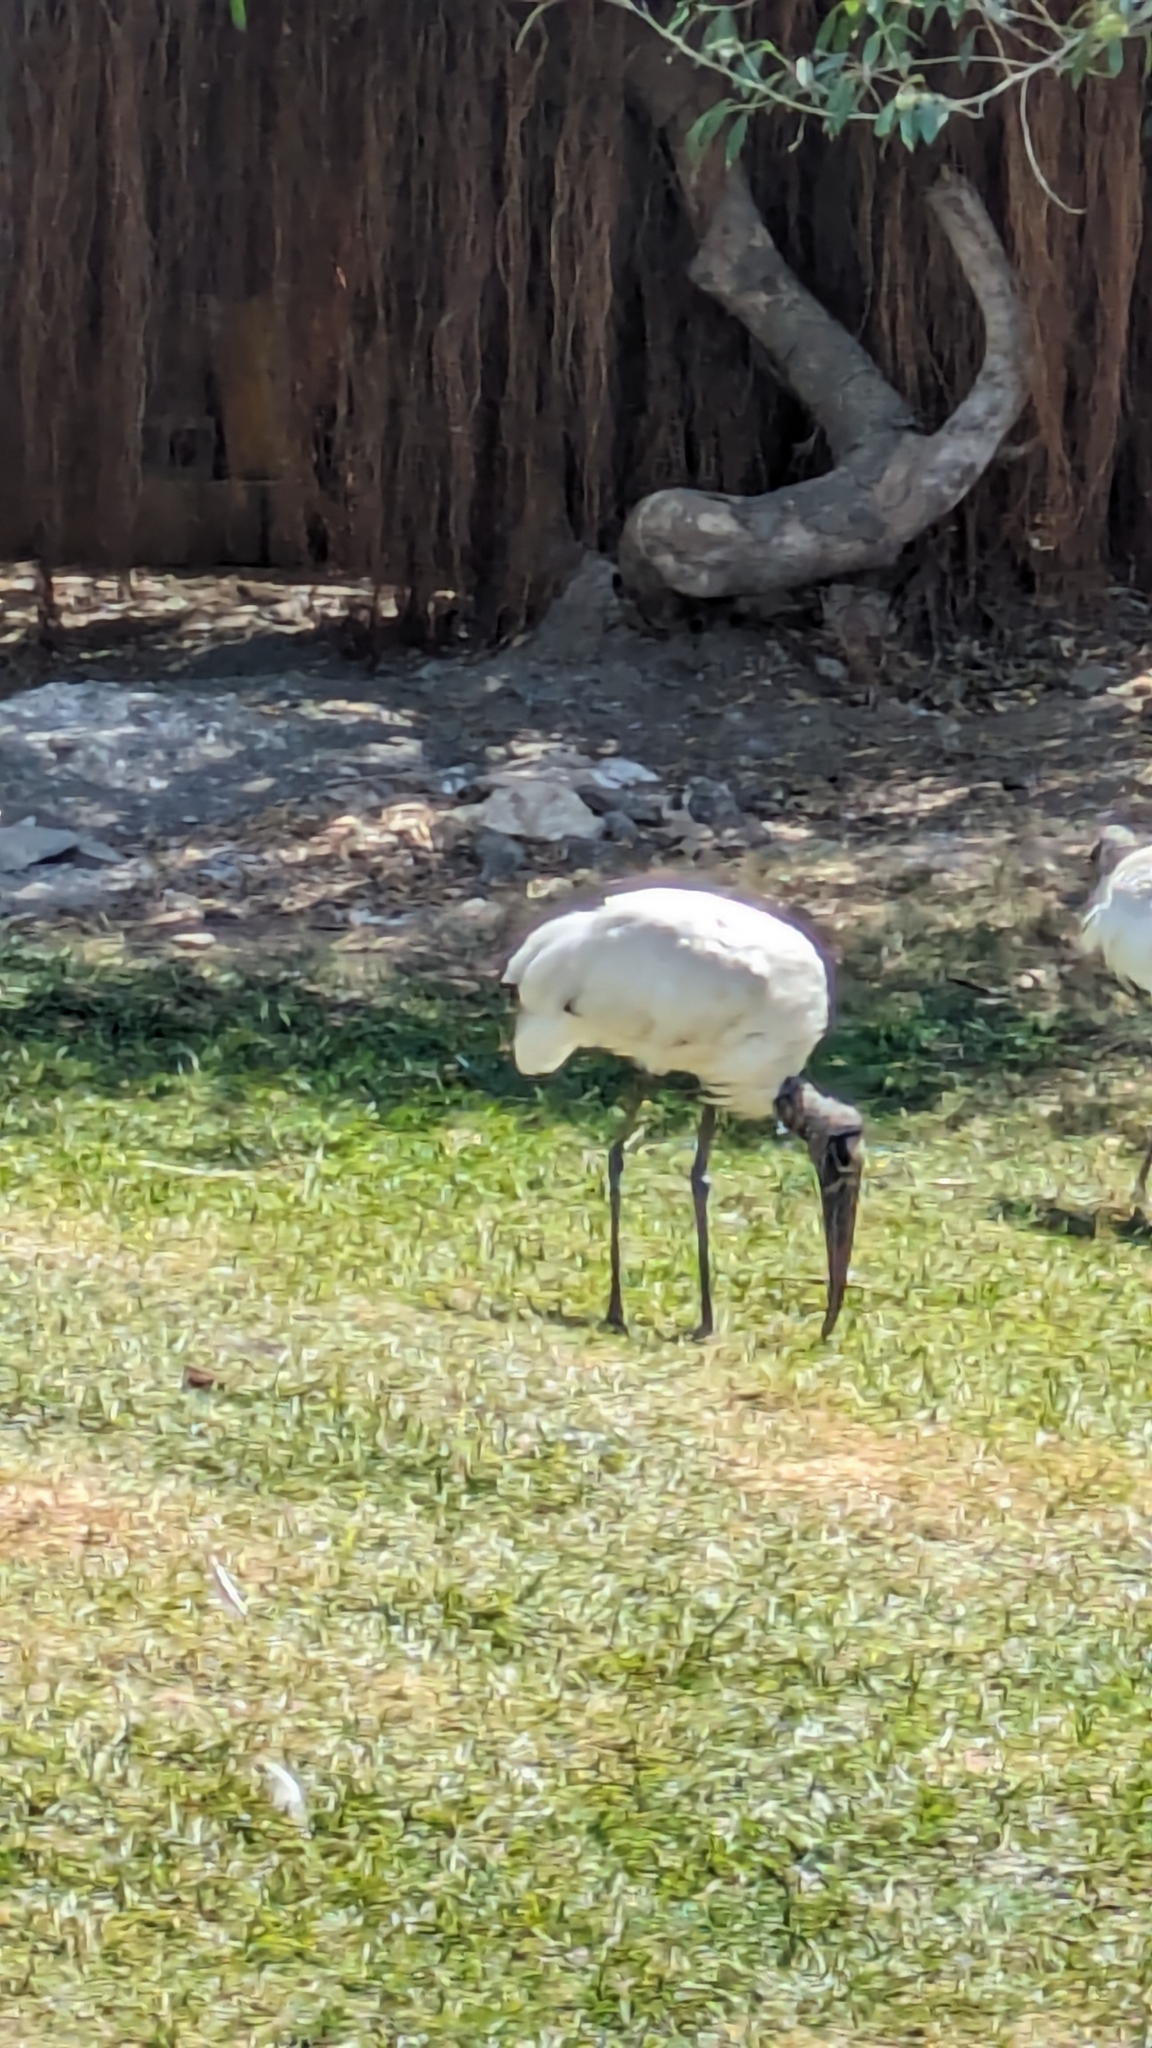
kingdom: Animalia
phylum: Chordata
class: Aves
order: Ciconiiformes
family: Ciconiidae
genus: Mycteria
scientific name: Mycteria americana
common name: Wood stork
